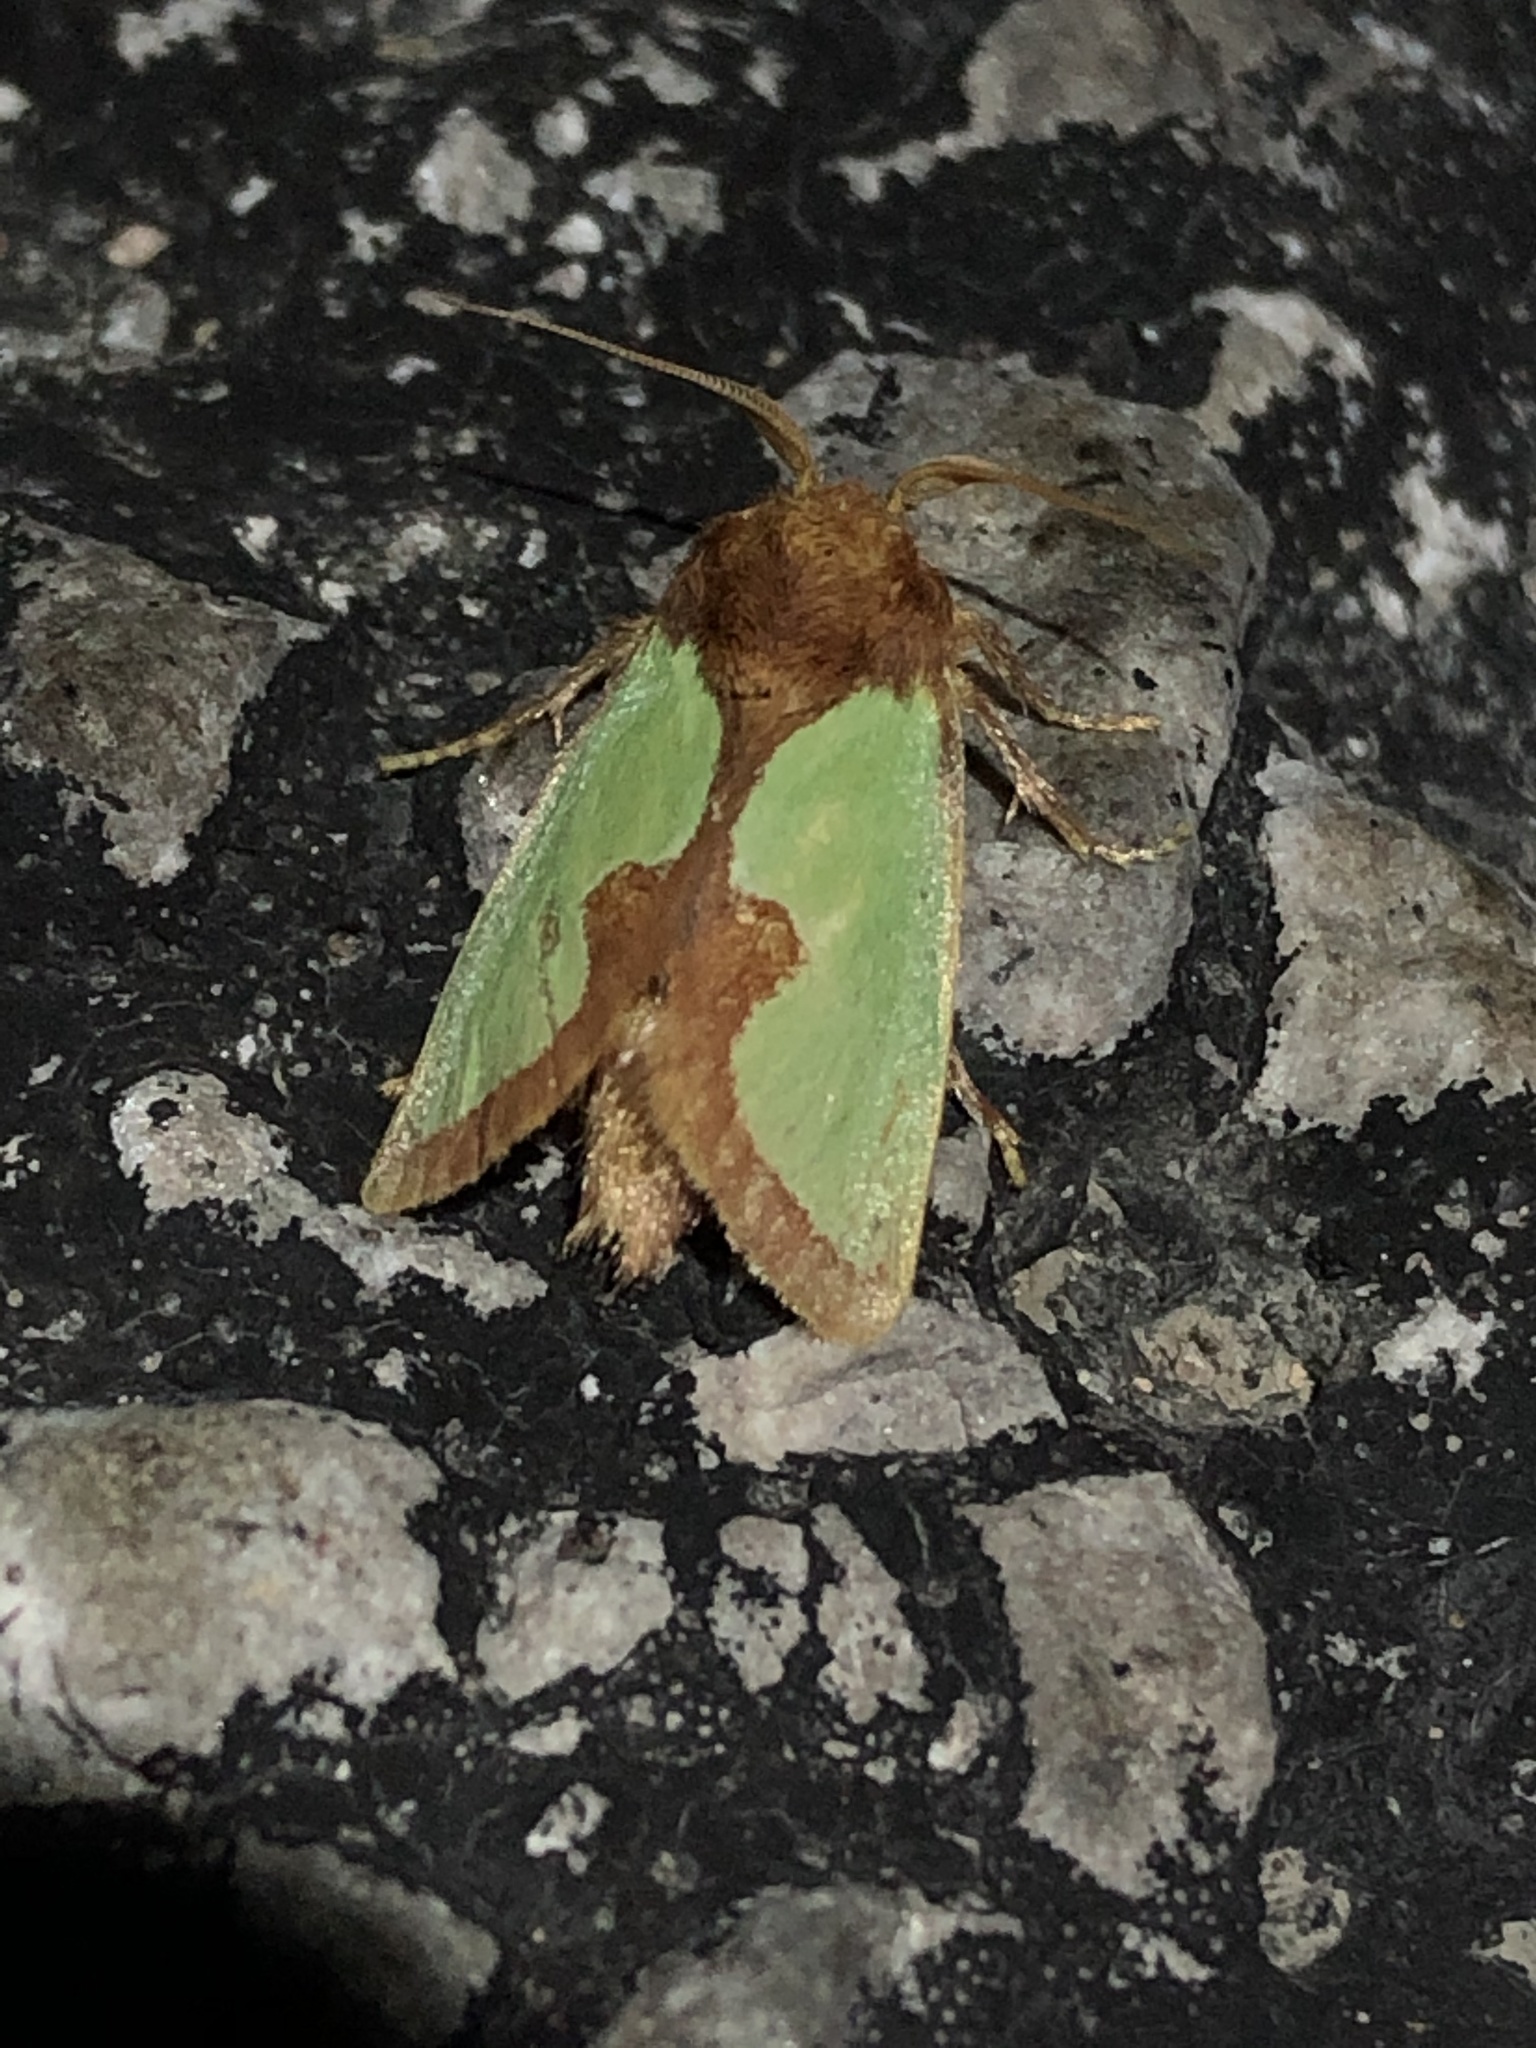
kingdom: Animalia
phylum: Arthropoda
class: Insecta
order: Lepidoptera
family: Limacodidae
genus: Euclea
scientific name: Euclea incisa
